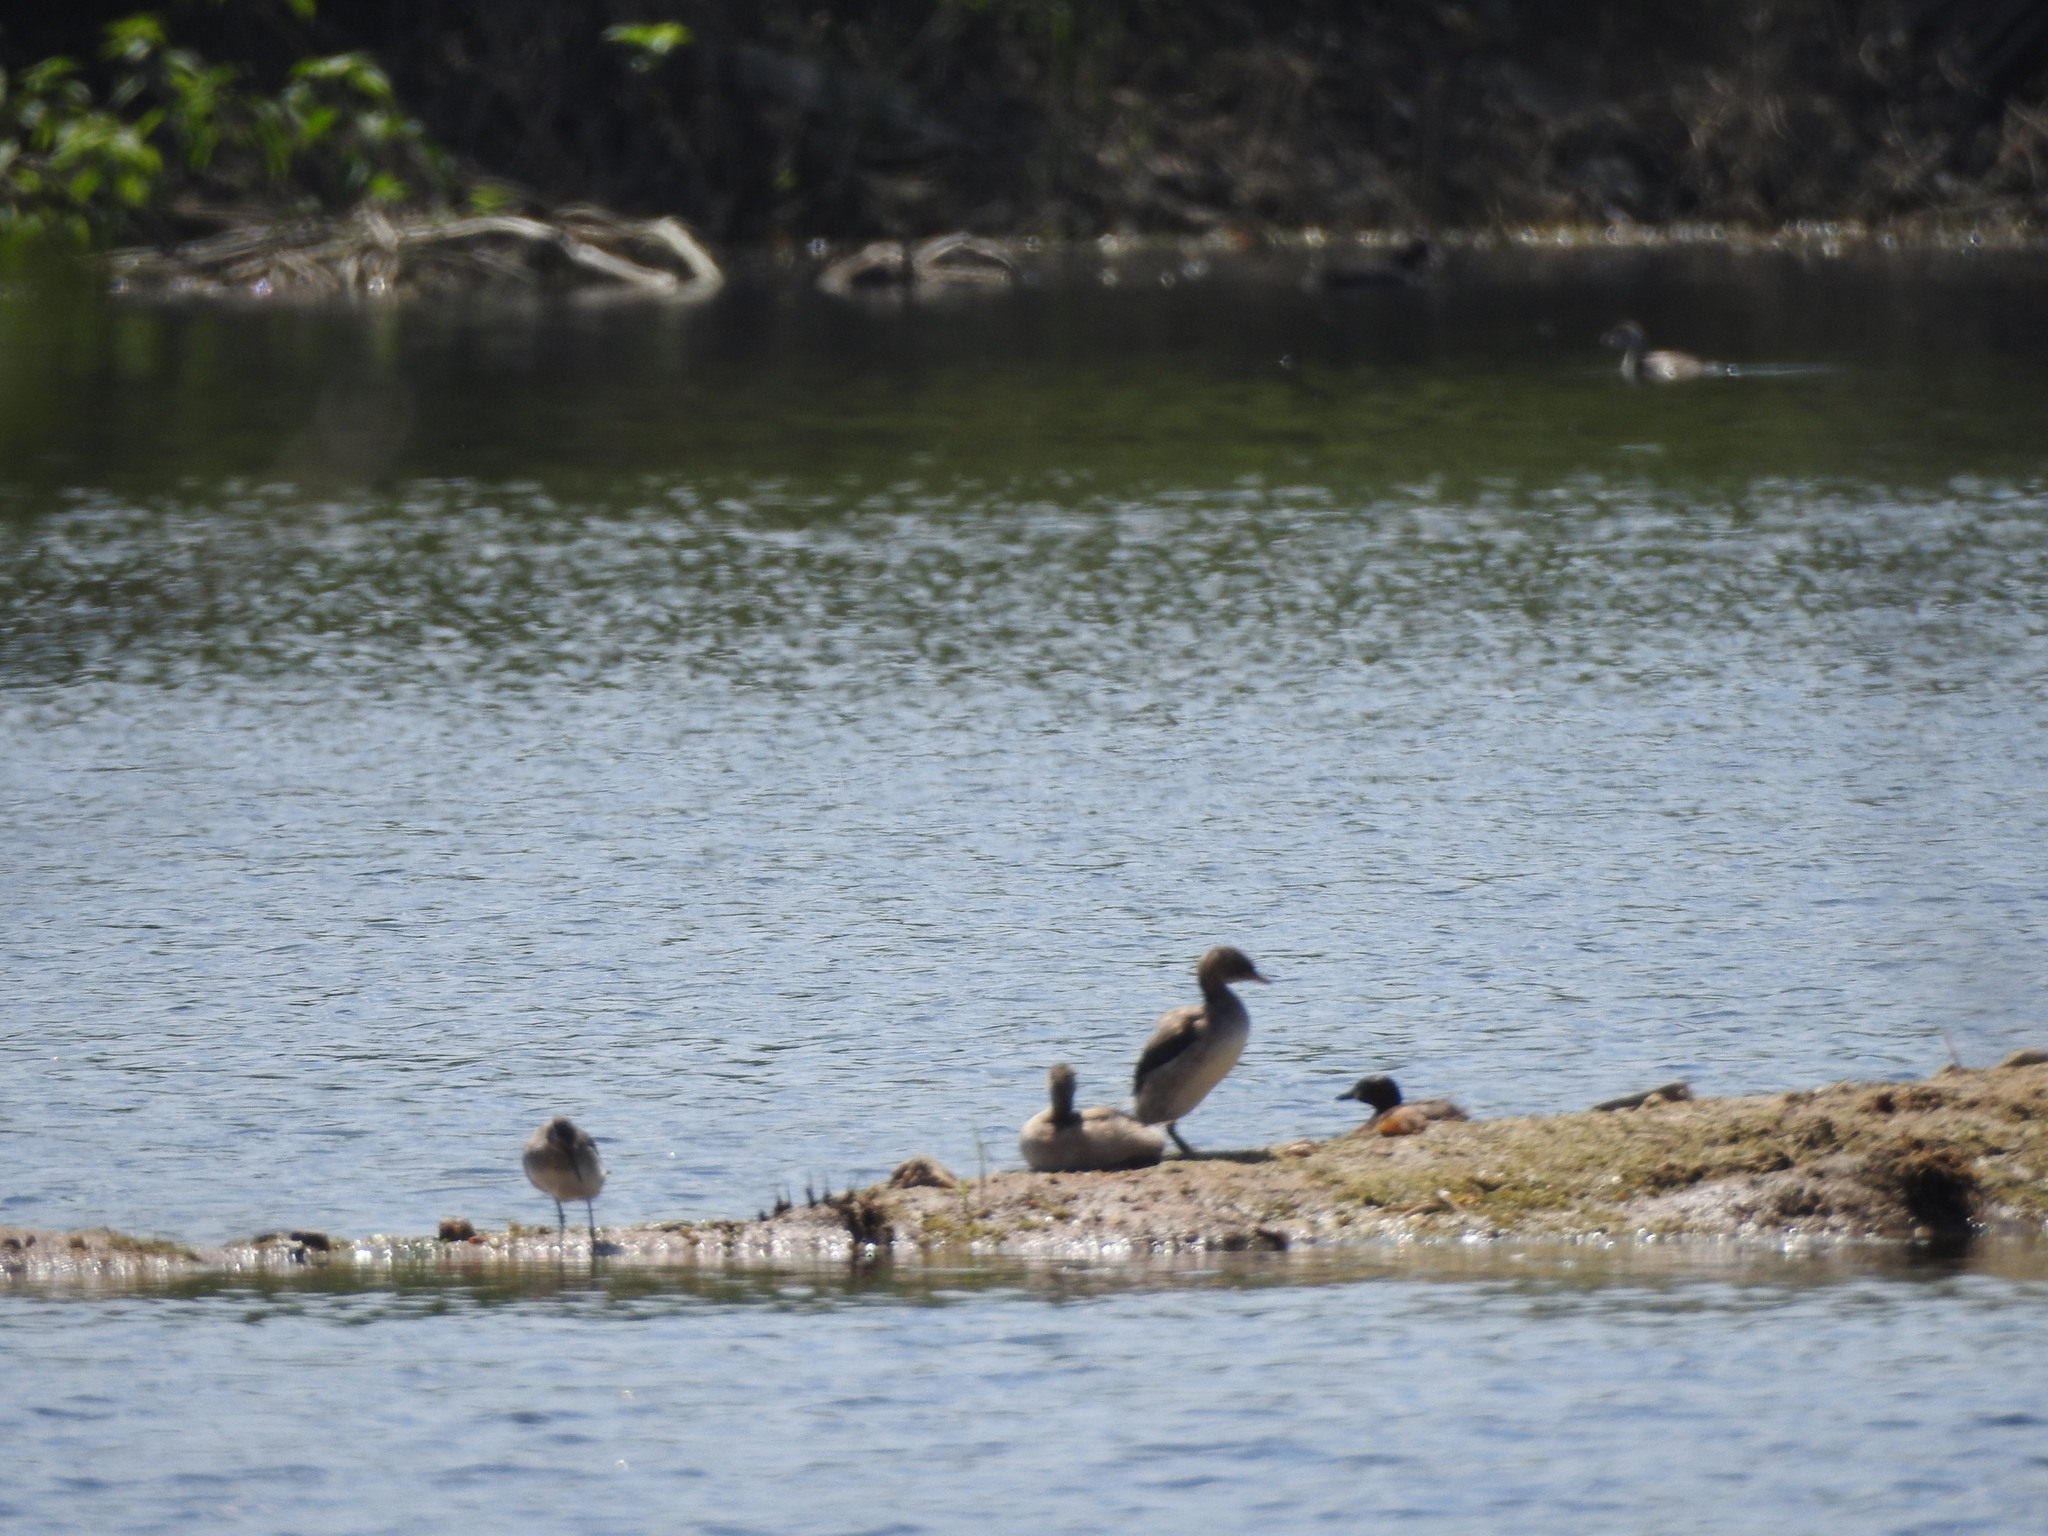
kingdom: Animalia
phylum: Chordata
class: Aves
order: Podicipediformes
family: Podicipedidae
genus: Tachybaptus
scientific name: Tachybaptus ruficollis
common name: Little grebe
